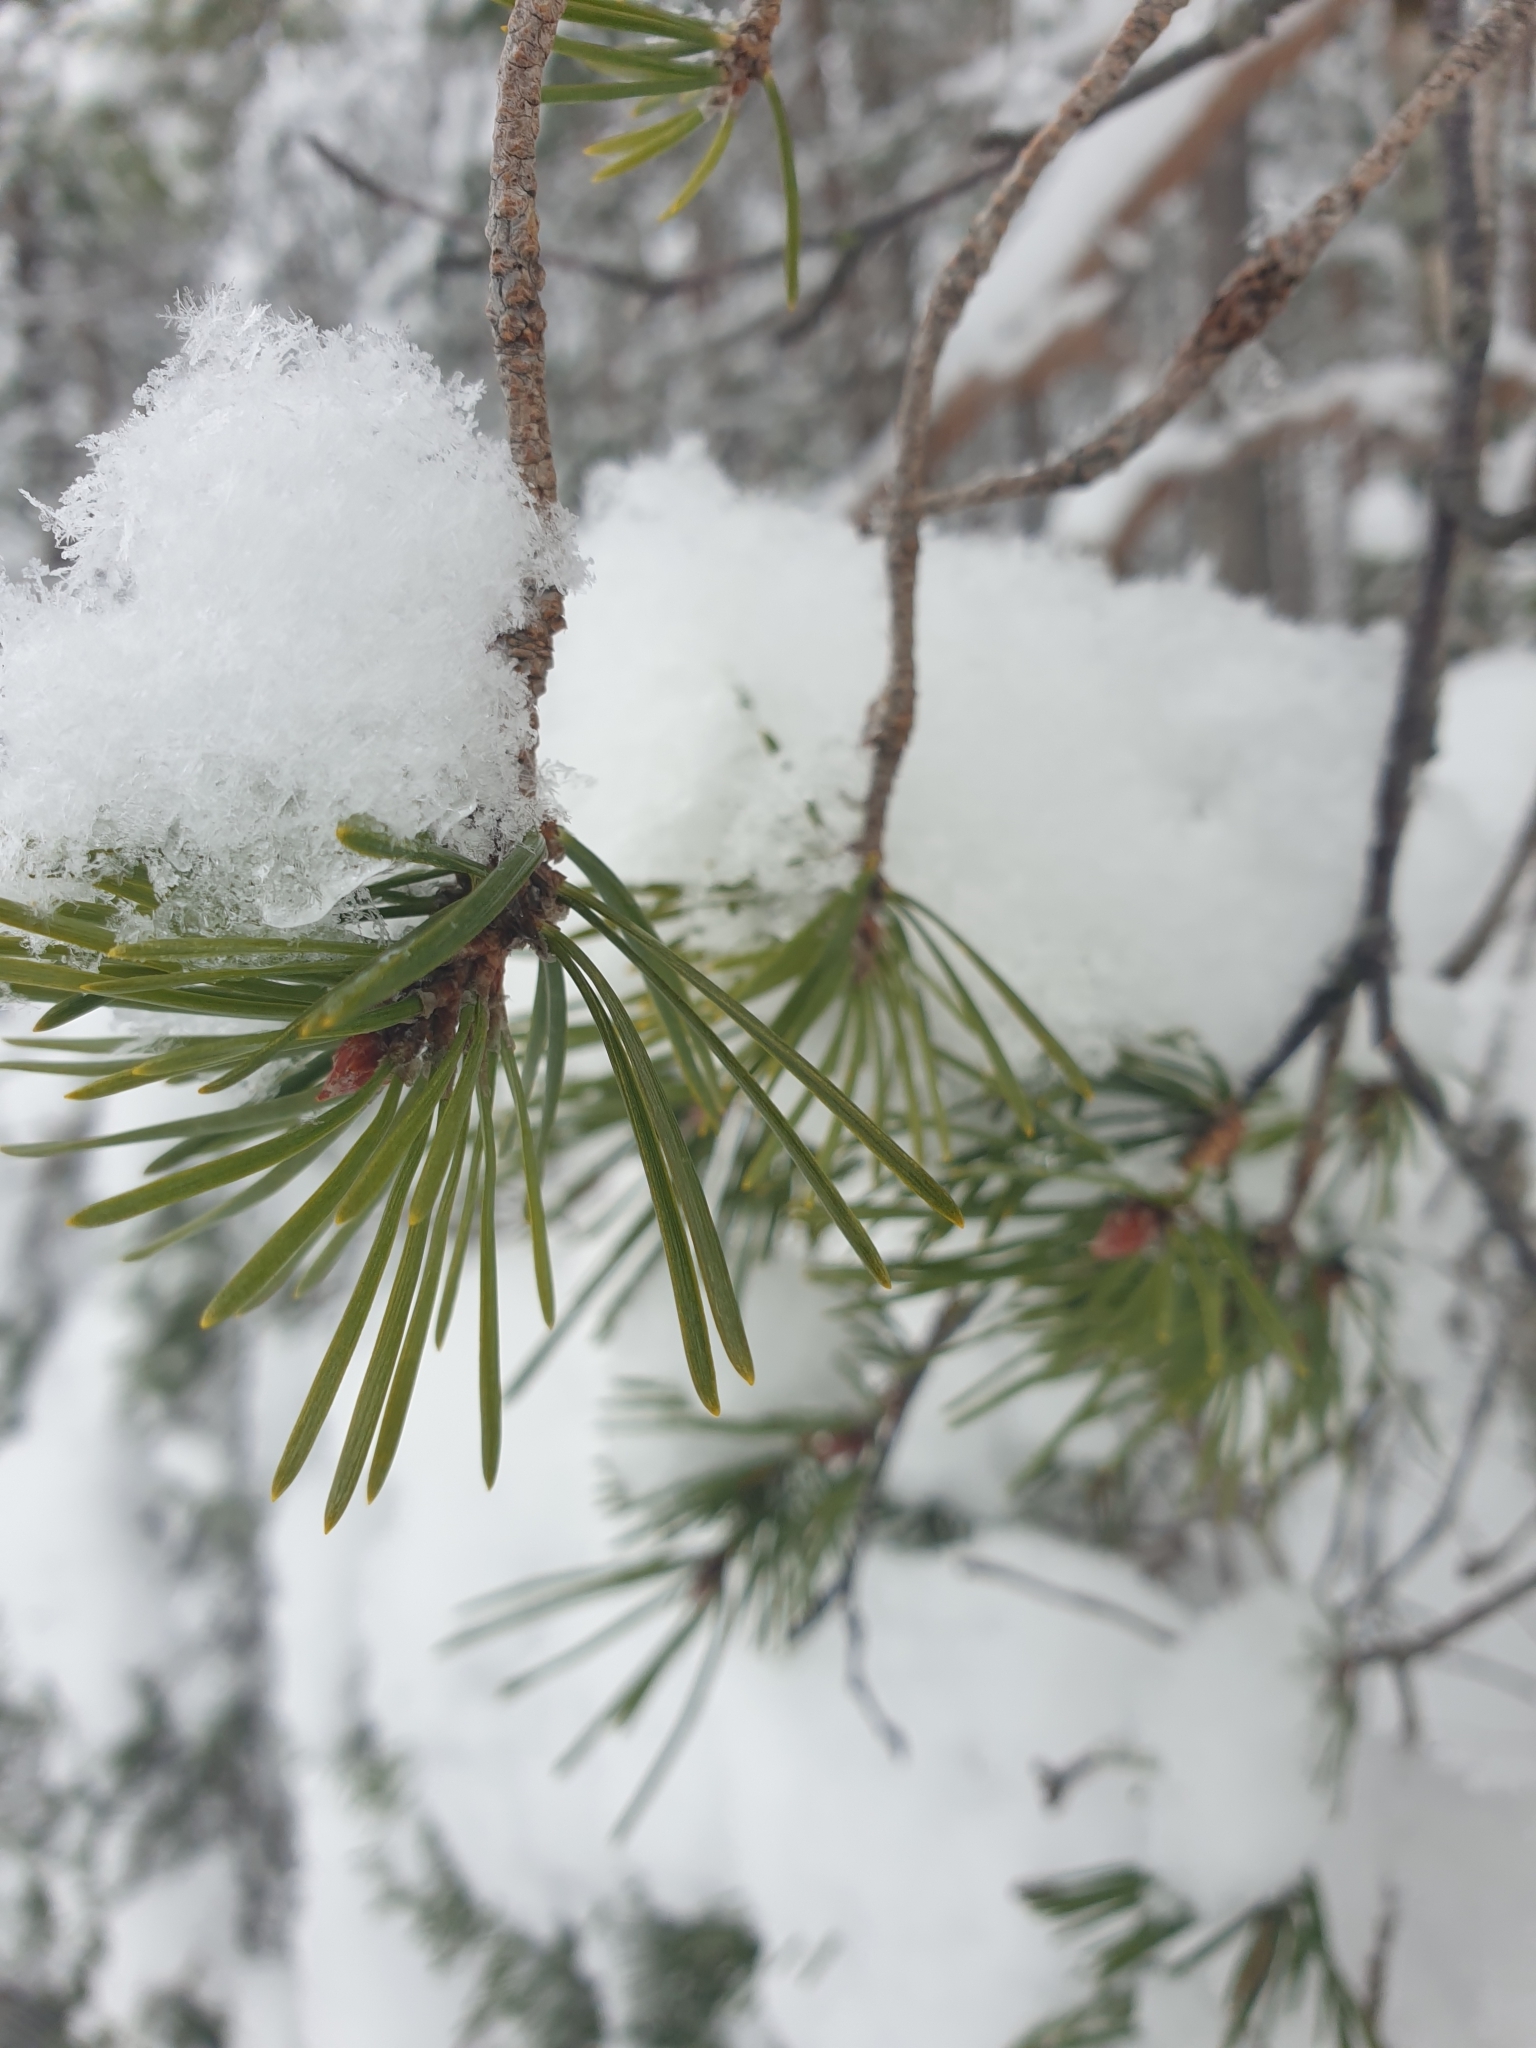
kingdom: Plantae
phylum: Tracheophyta
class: Pinopsida
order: Pinales
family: Pinaceae
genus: Pinus
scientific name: Pinus sylvestris
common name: Scots pine
